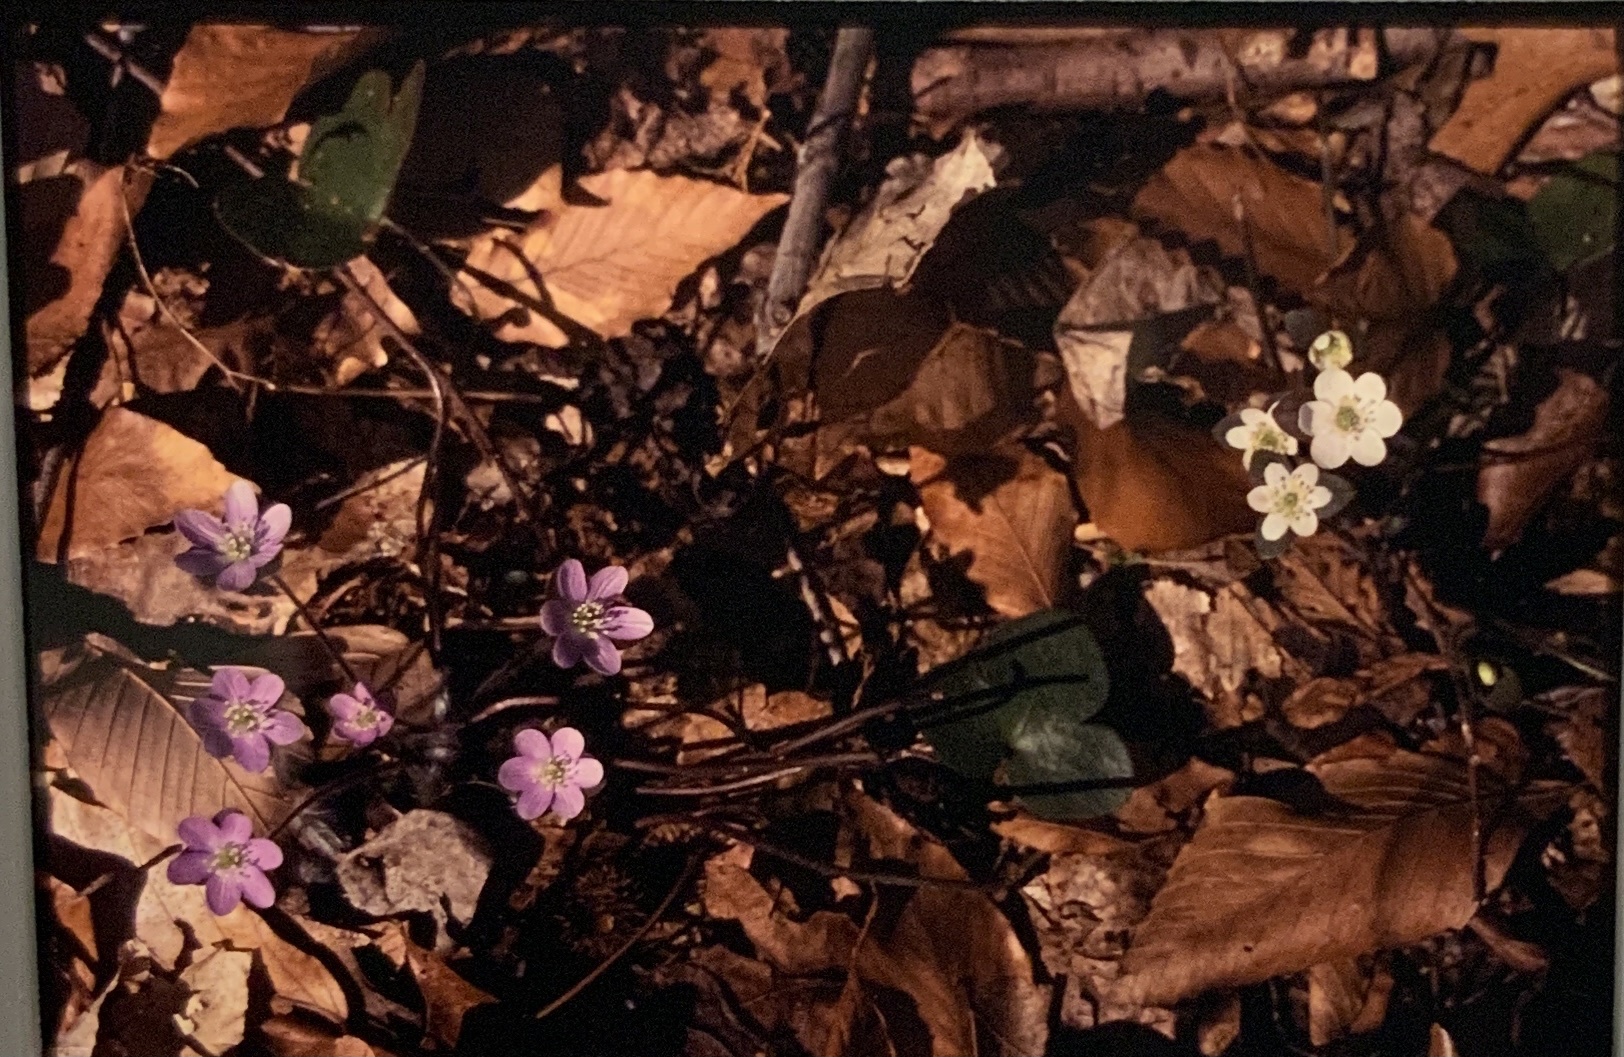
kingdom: Plantae
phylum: Tracheophyta
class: Magnoliopsida
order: Ranunculales
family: Ranunculaceae
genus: Hepatica
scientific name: Hepatica americana
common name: American hepatica
